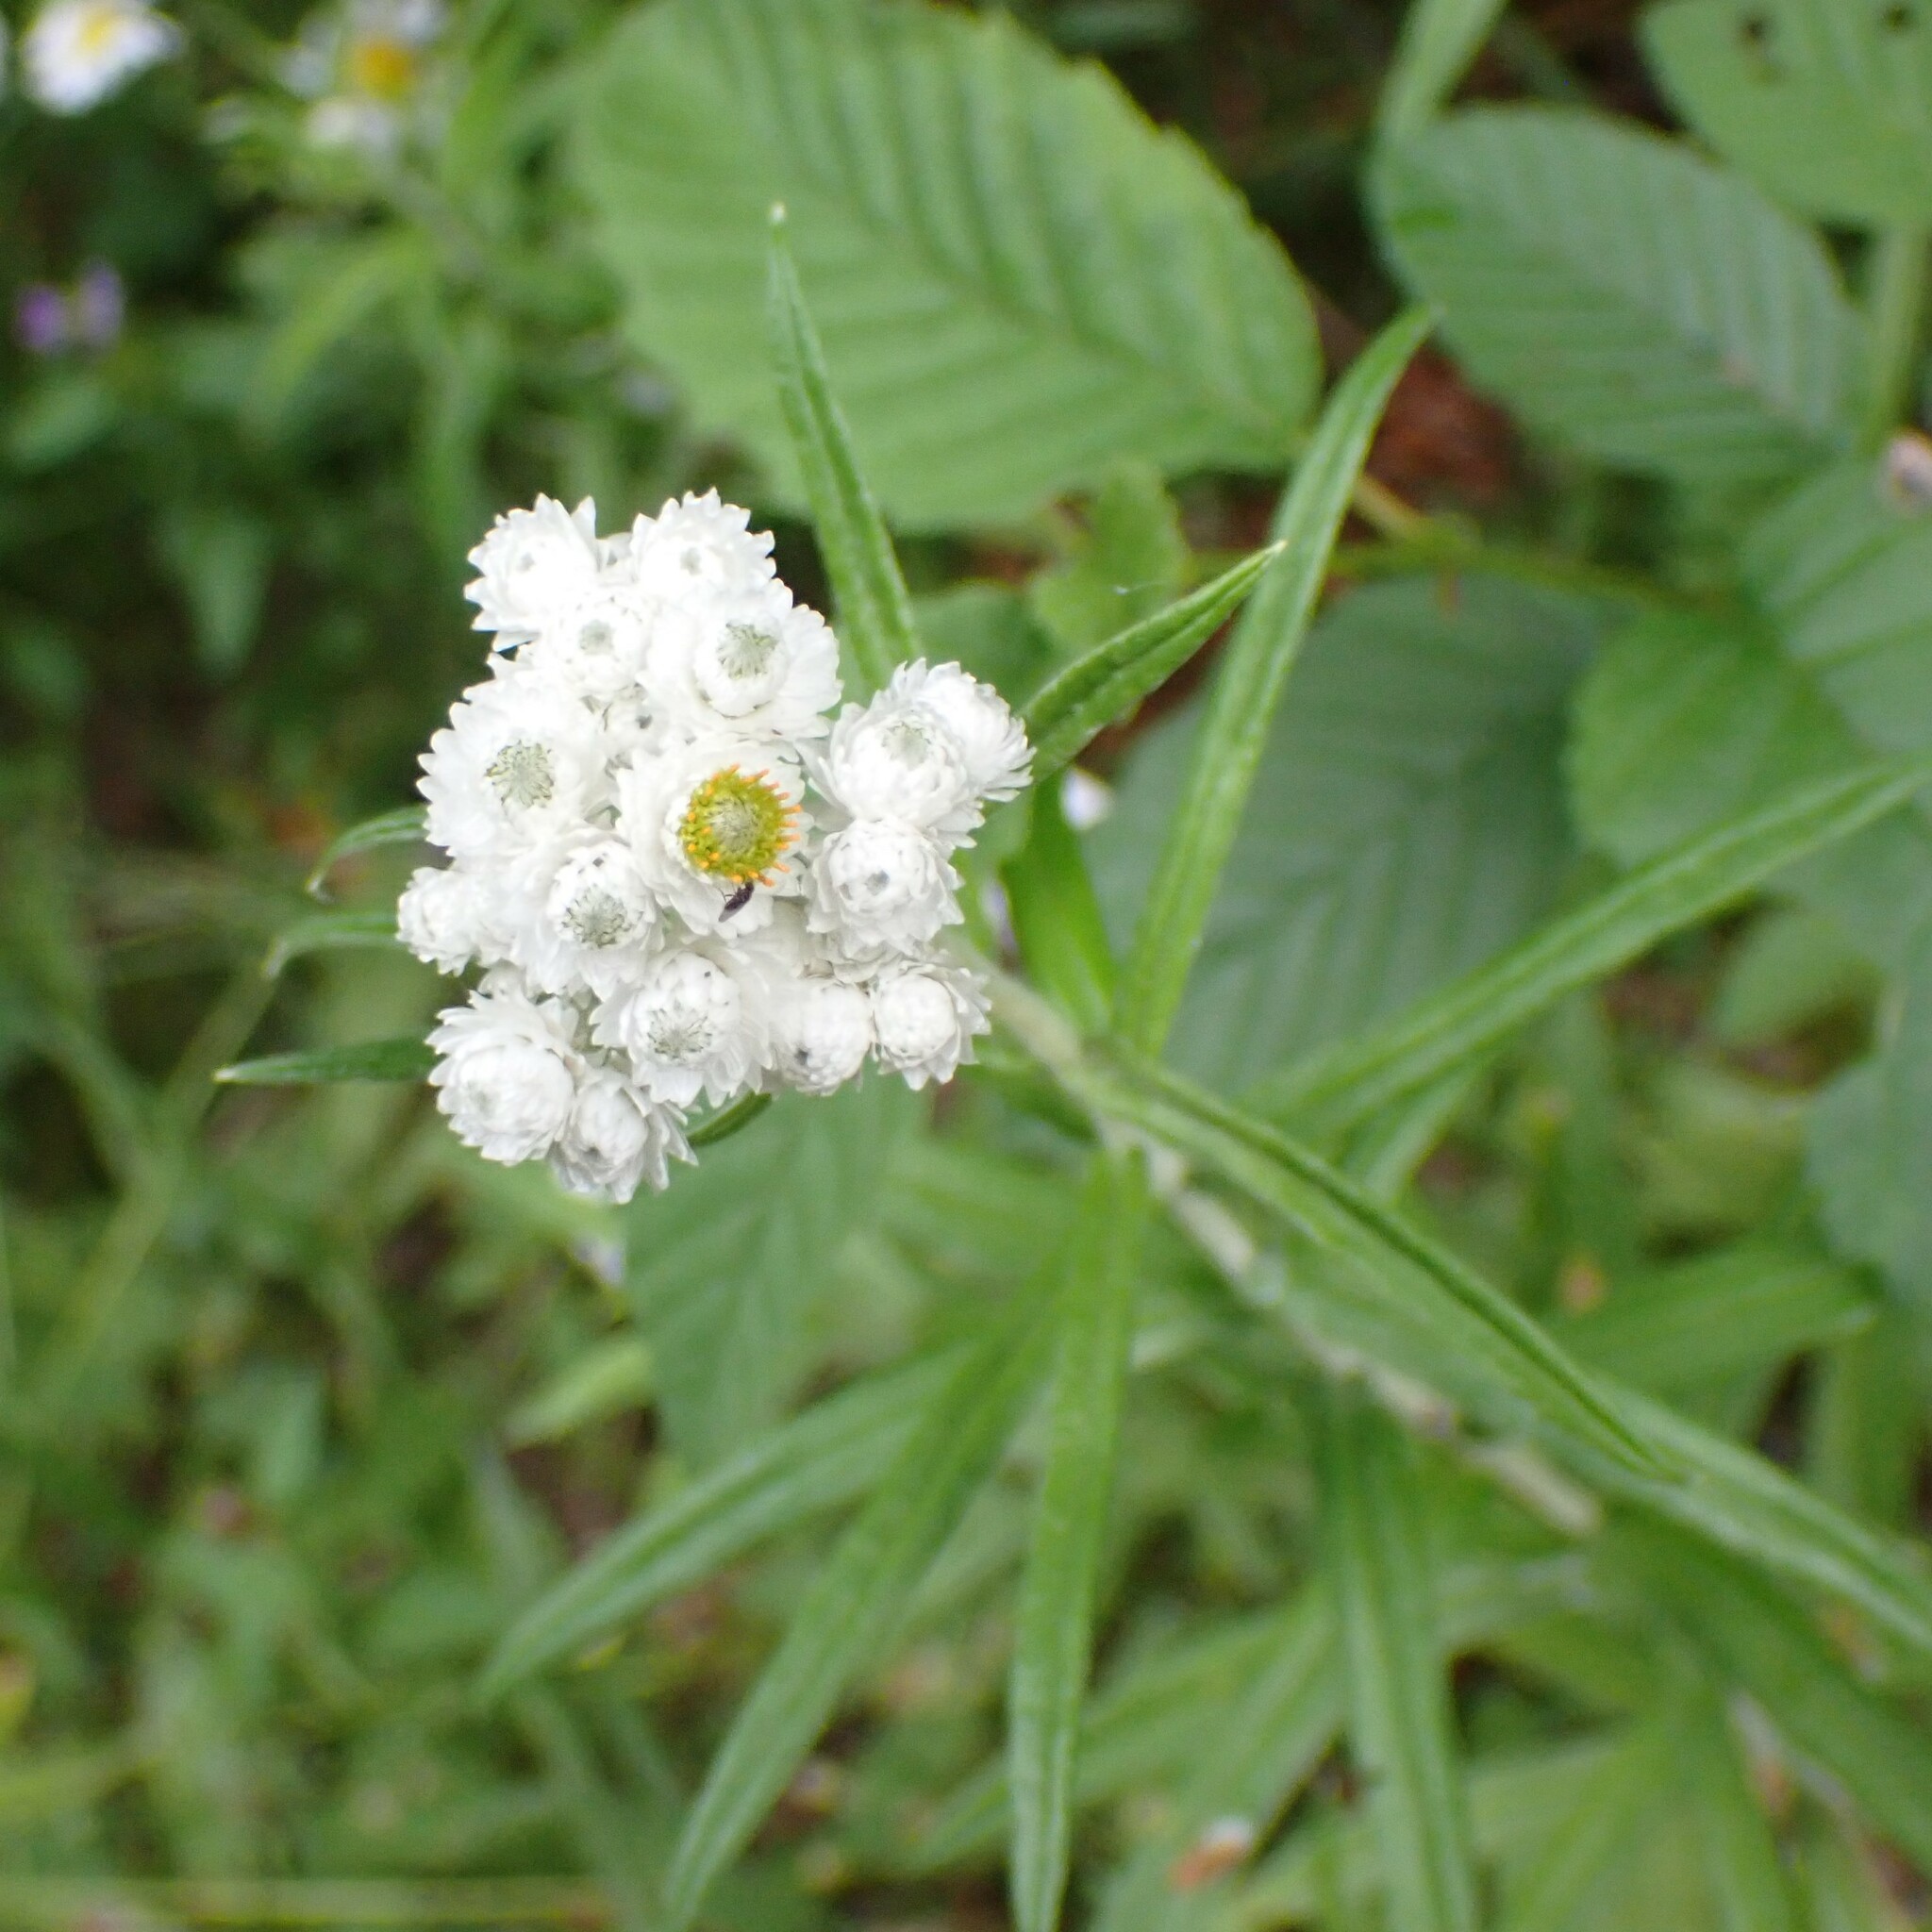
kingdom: Plantae
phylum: Tracheophyta
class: Magnoliopsida
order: Asterales
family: Asteraceae
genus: Anaphalis
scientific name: Anaphalis margaritacea
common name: Pearly everlasting
